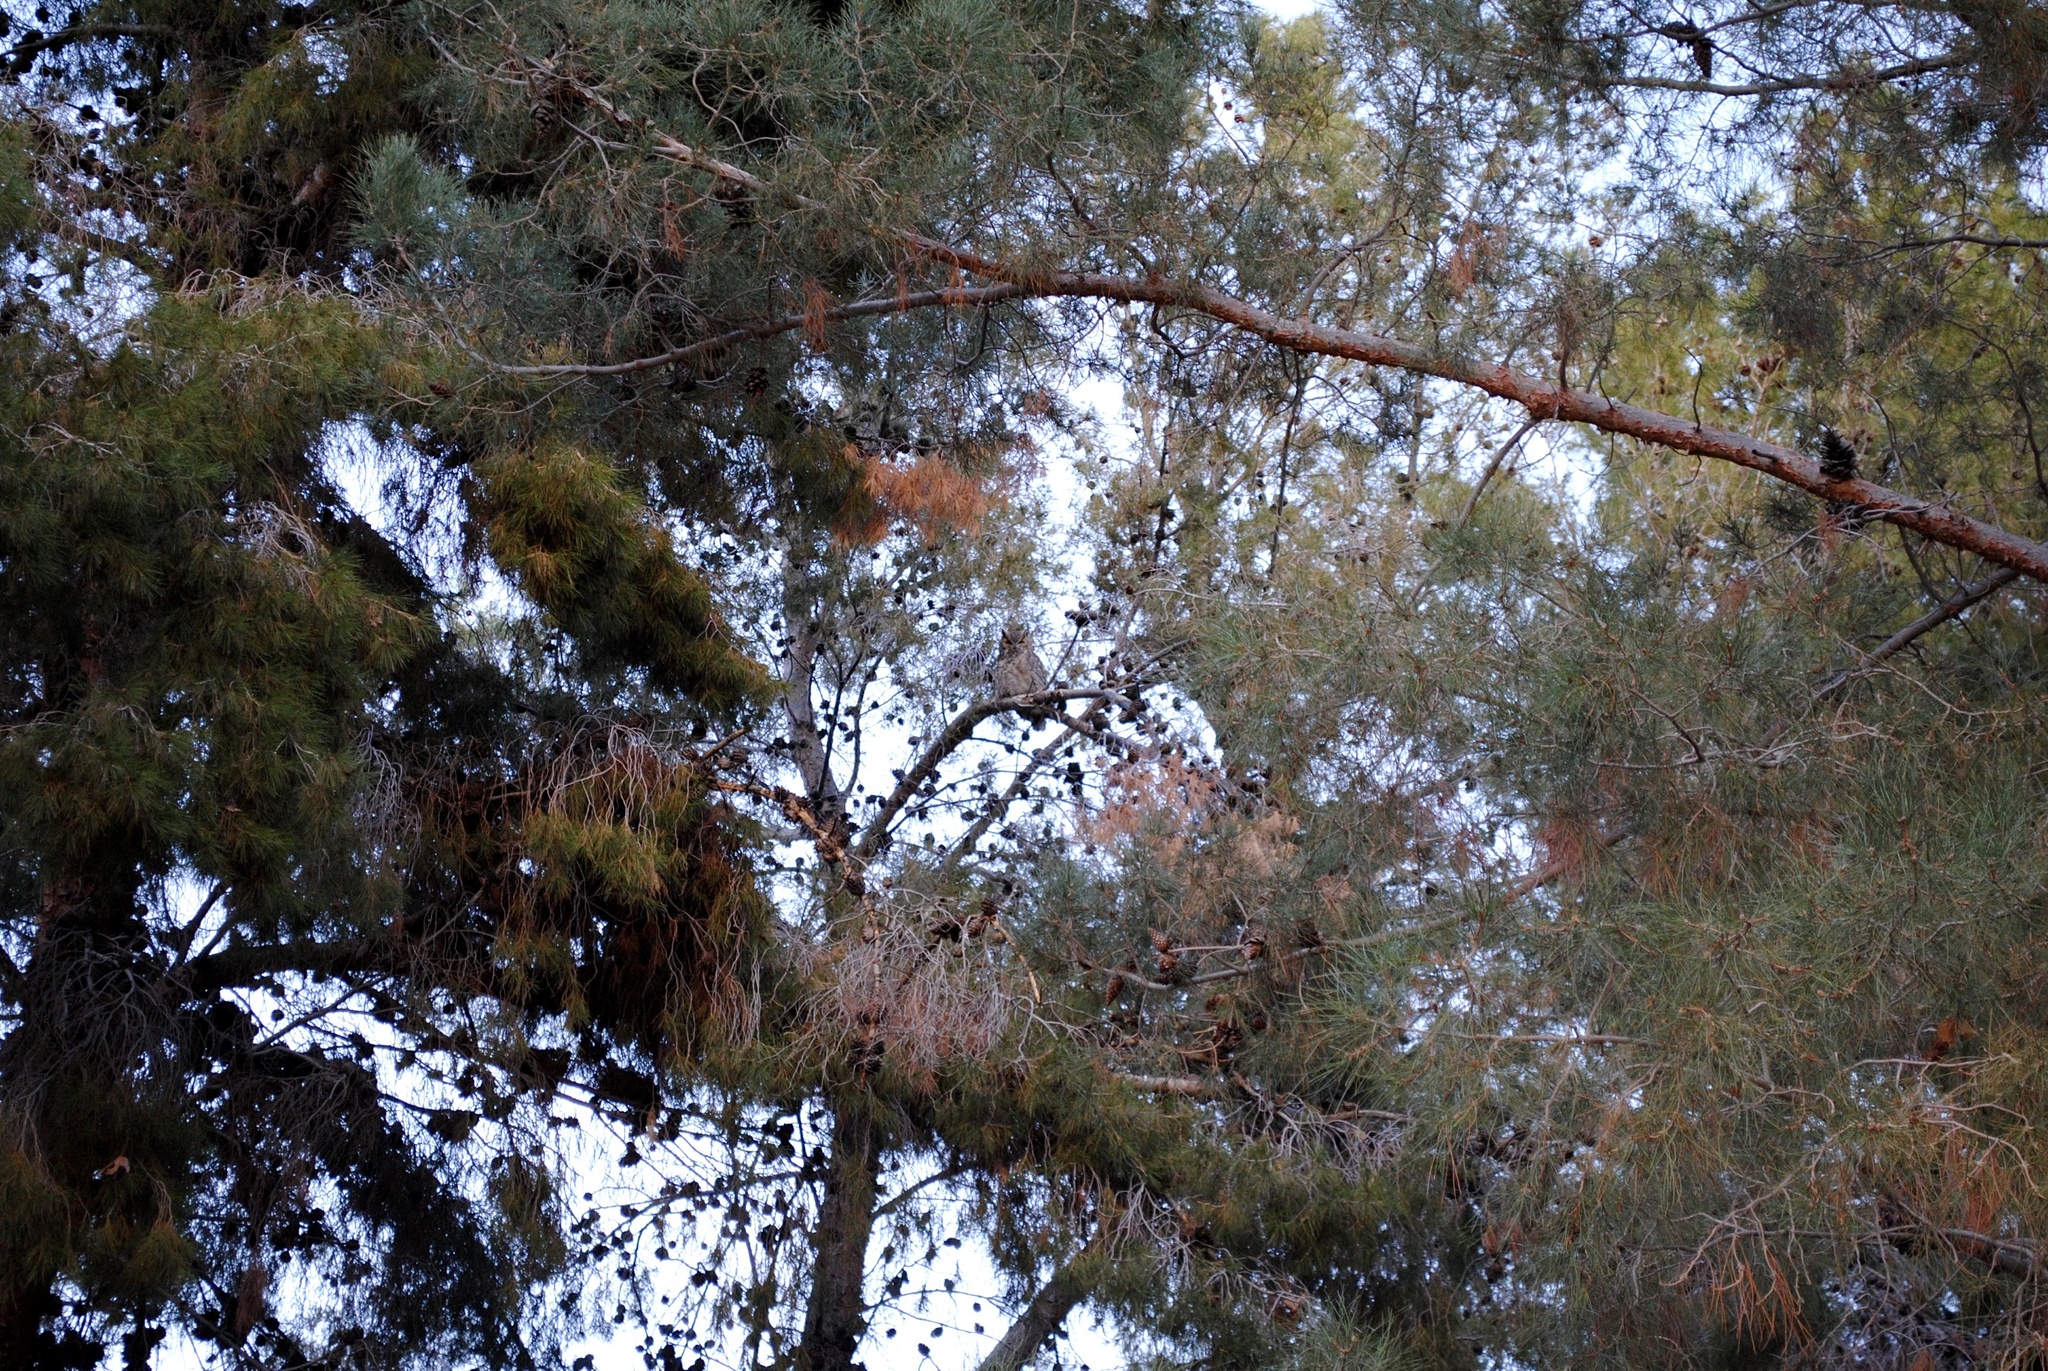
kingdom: Animalia
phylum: Chordata
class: Aves
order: Strigiformes
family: Strigidae
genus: Bubo
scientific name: Bubo virginianus
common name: Great horned owl
